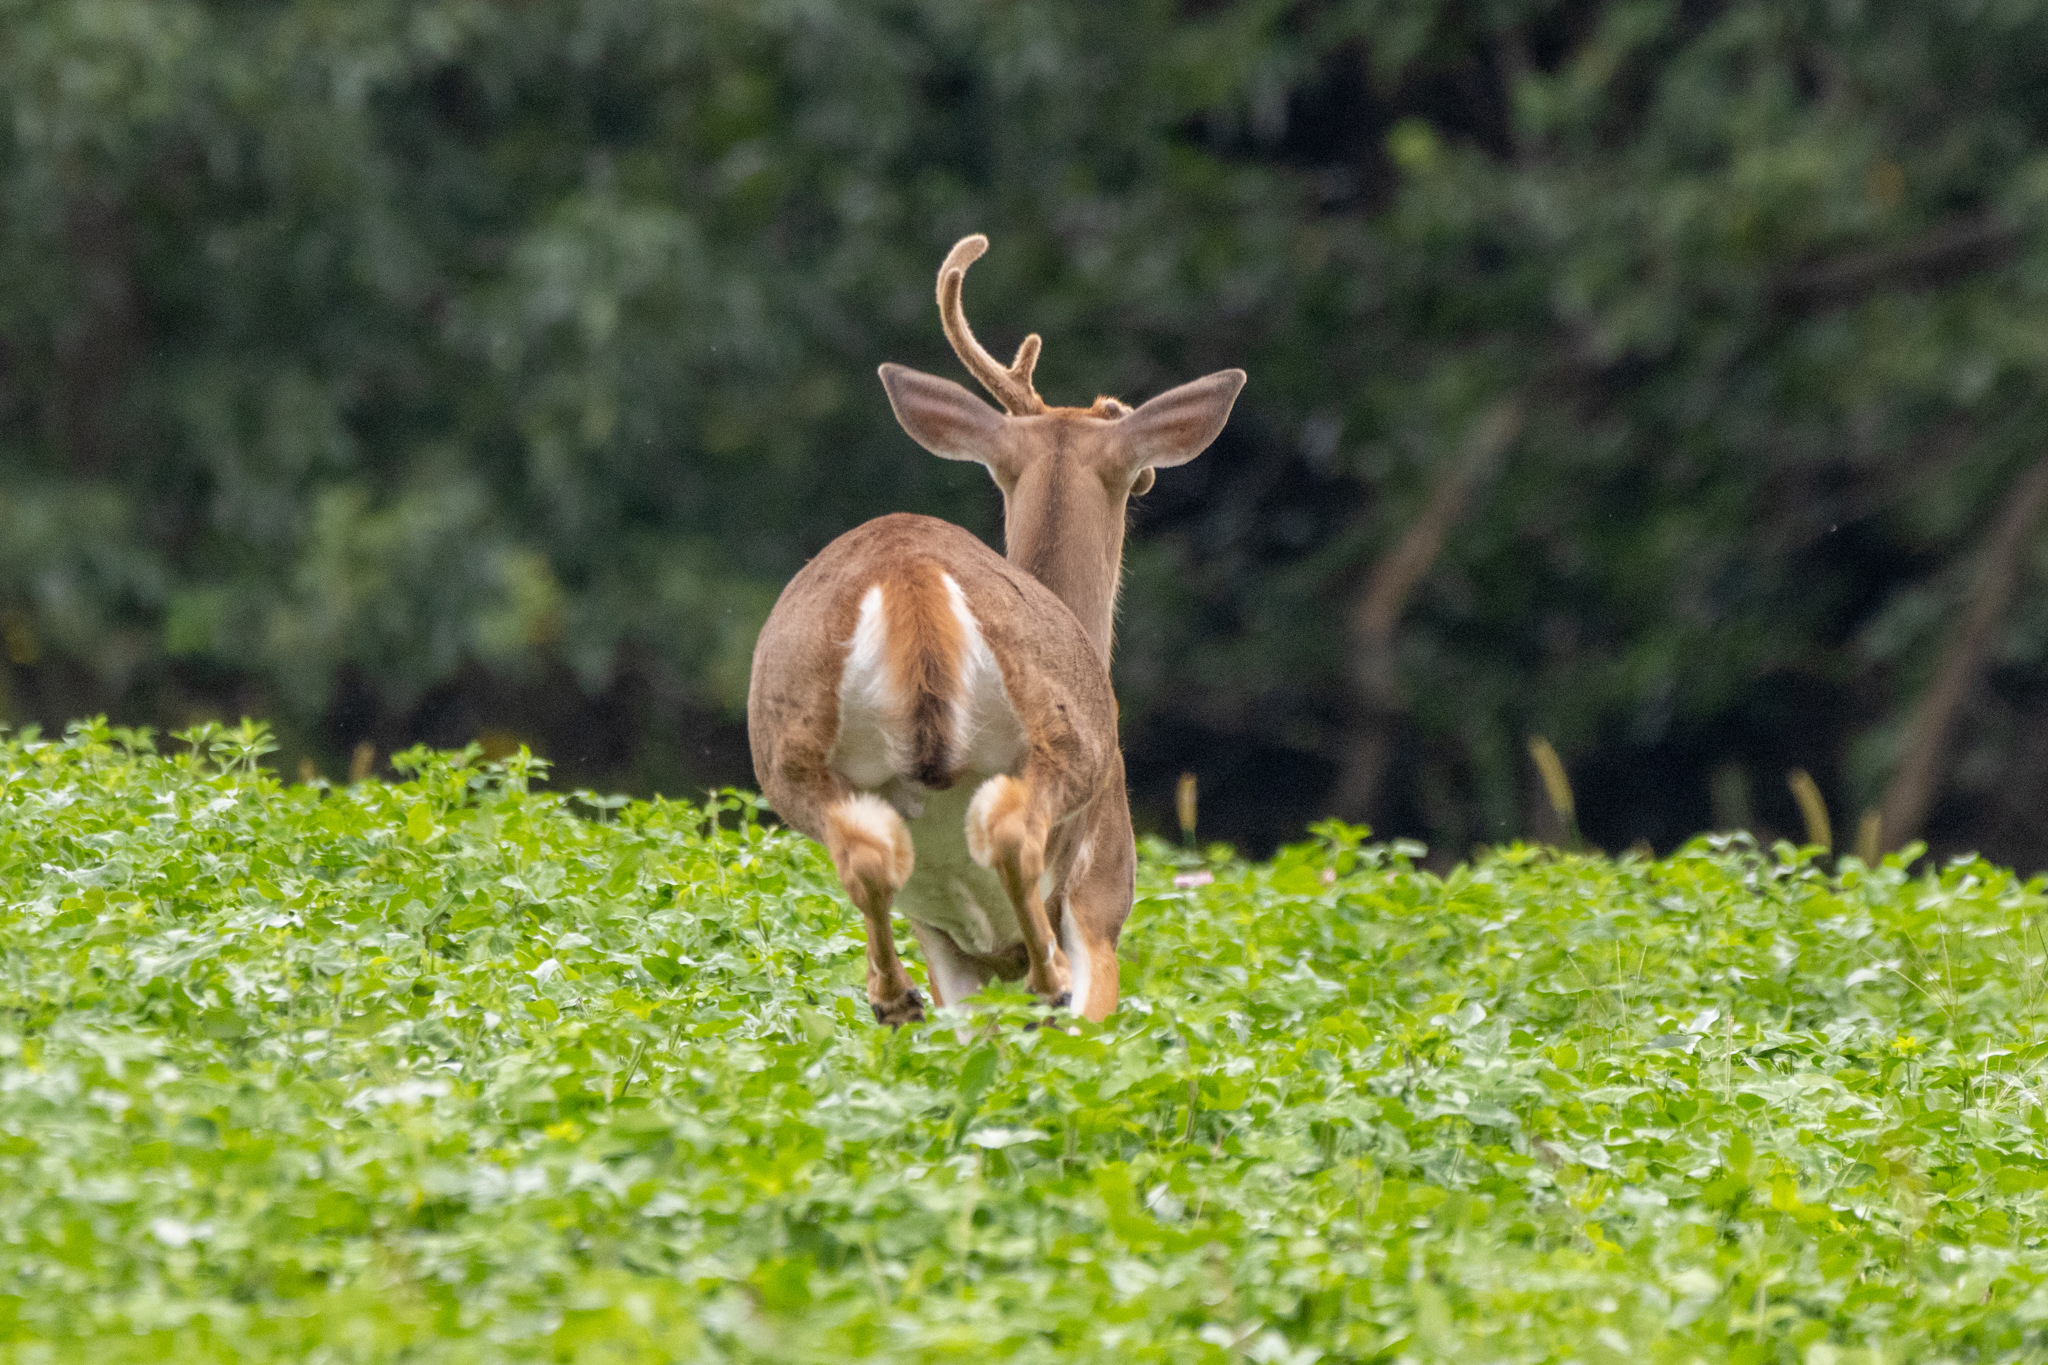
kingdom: Animalia
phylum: Chordata
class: Mammalia
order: Artiodactyla
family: Cervidae
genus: Odocoileus
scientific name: Odocoileus virginianus
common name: White-tailed deer
